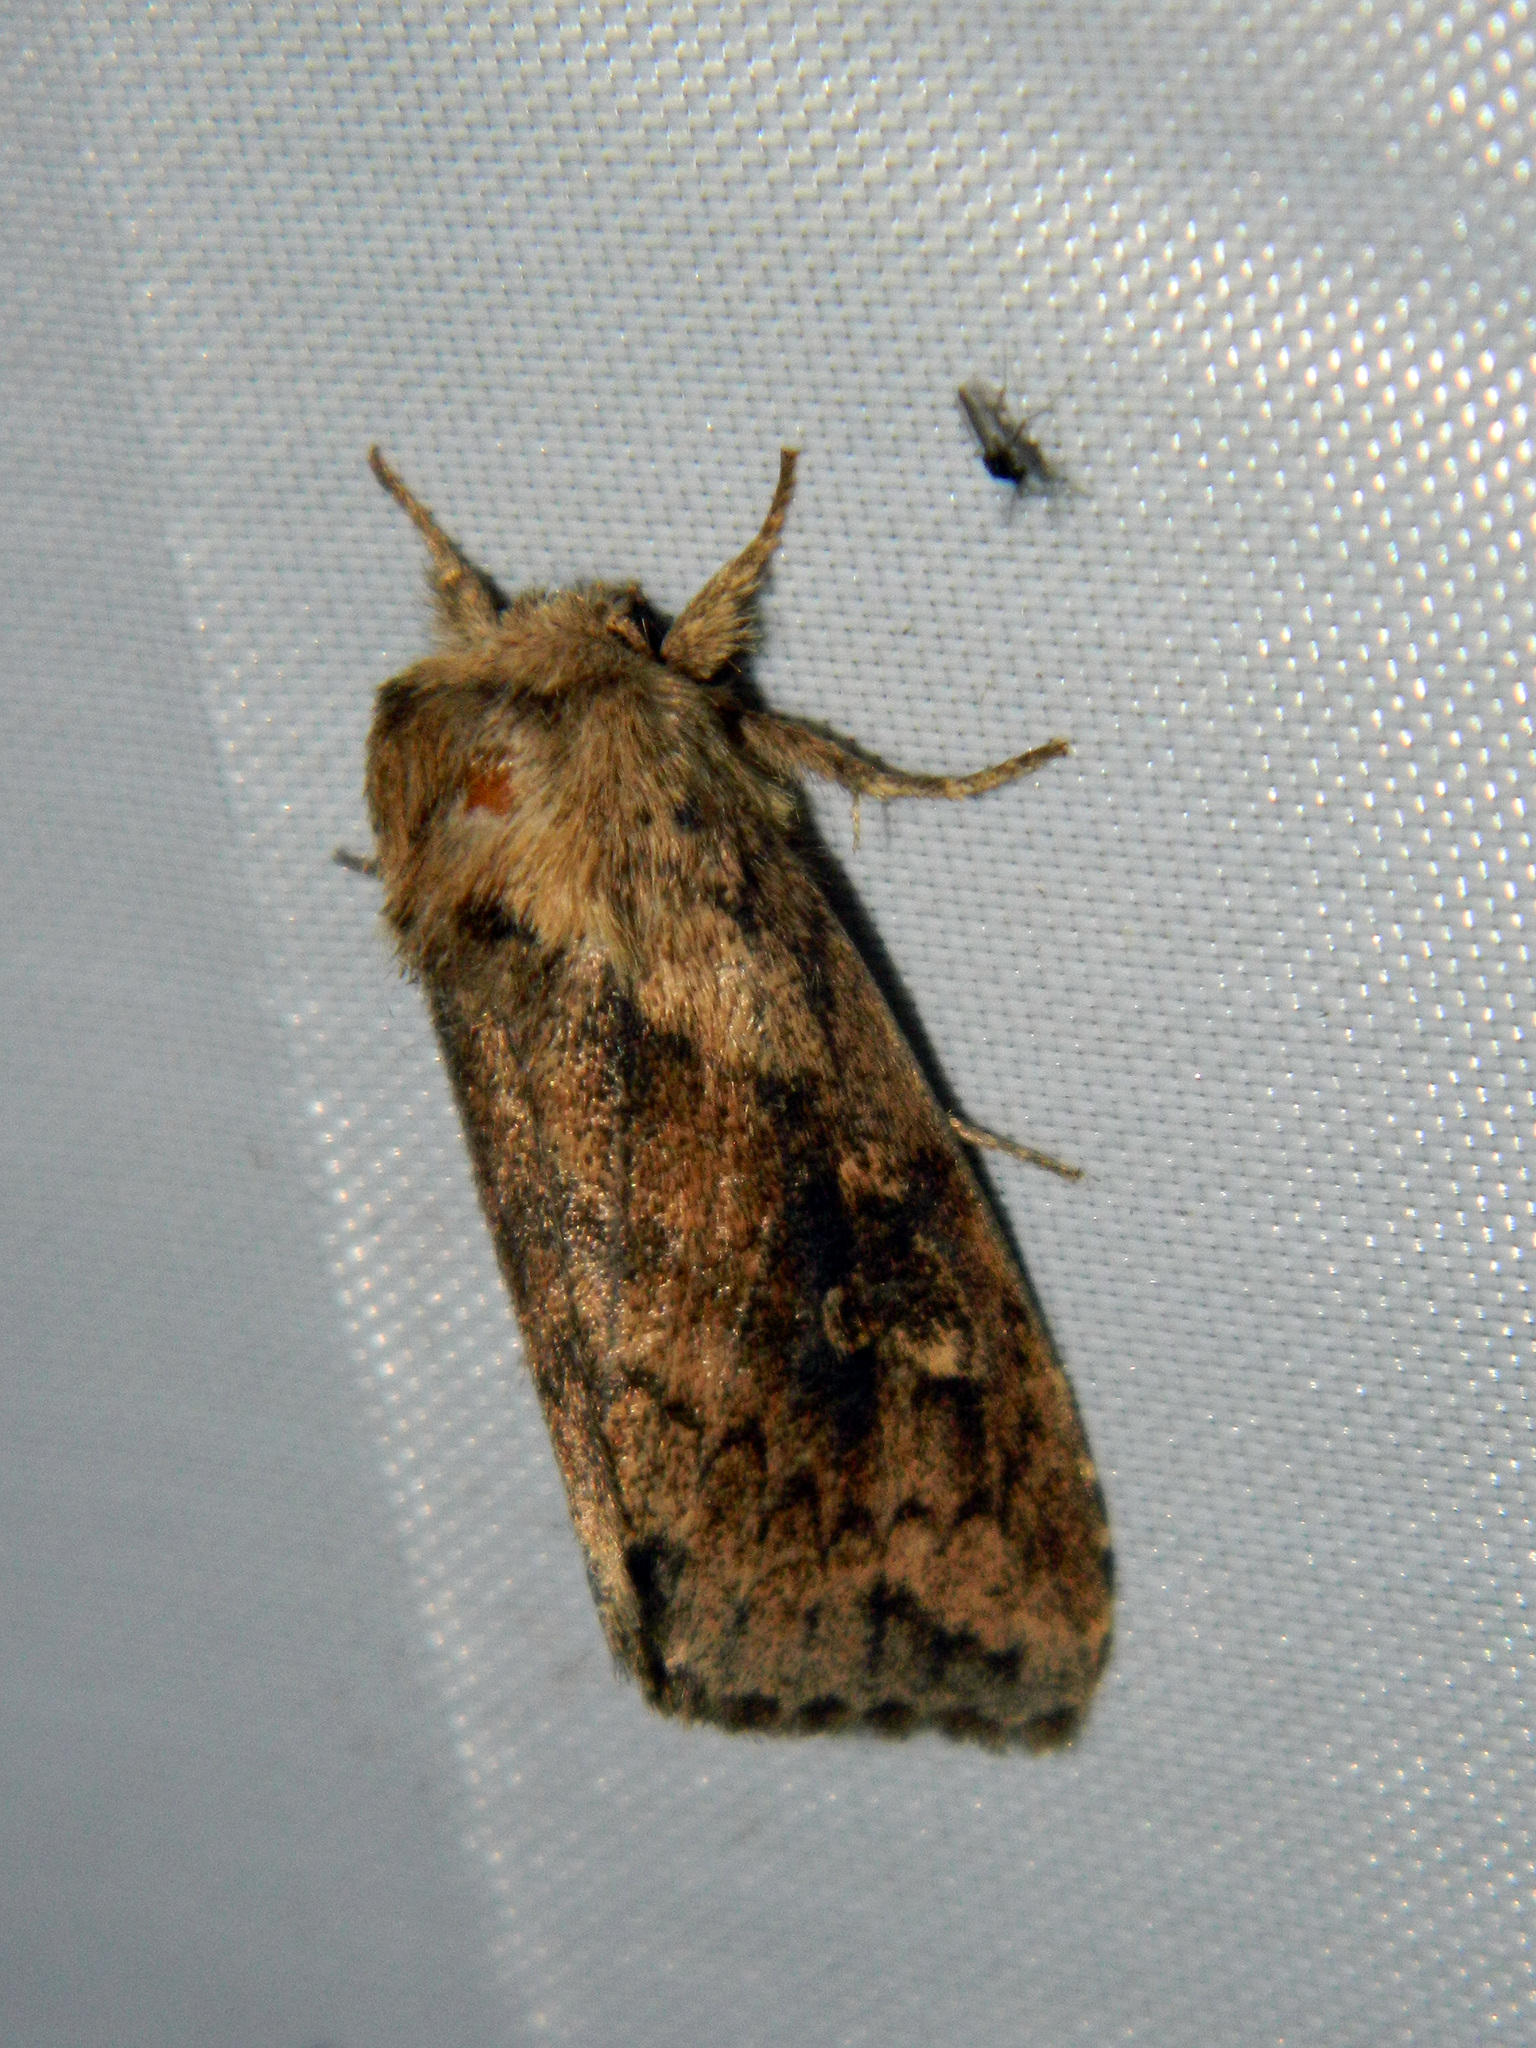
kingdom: Animalia
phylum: Arthropoda
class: Insecta
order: Lepidoptera
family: Noctuidae
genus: Bellura
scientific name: Bellura vulnifica
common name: Black-tailed diver moth
